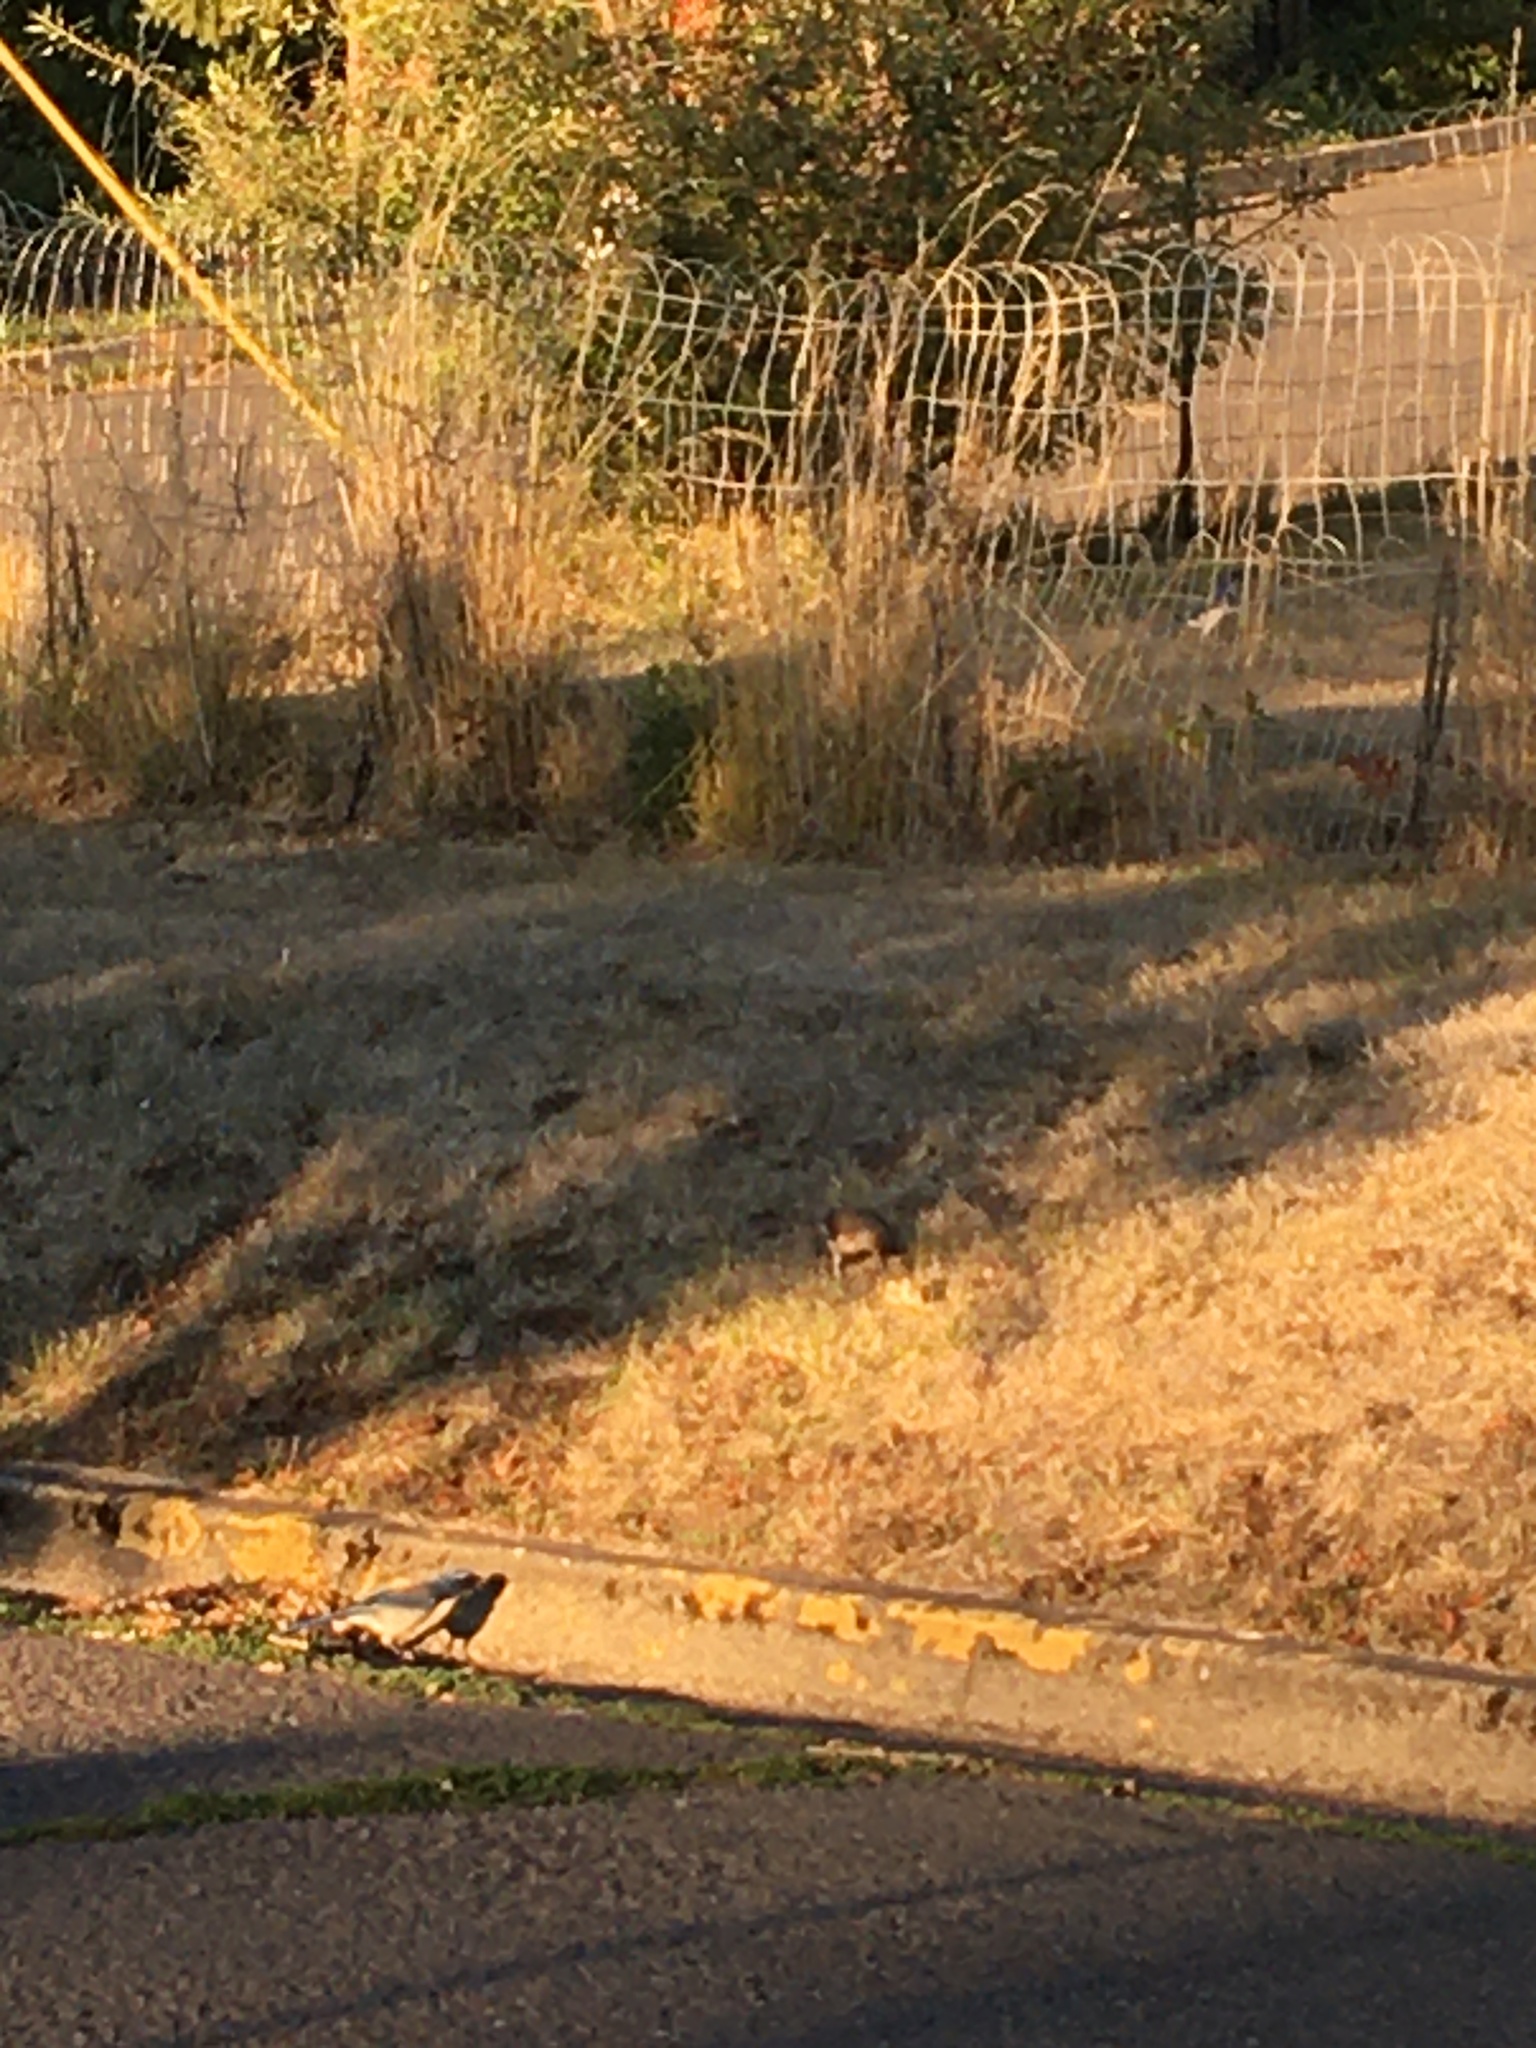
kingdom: Animalia
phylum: Chordata
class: Aves
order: Passeriformes
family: Corvidae
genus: Aphelocoma
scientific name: Aphelocoma californica
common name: California scrub-jay
